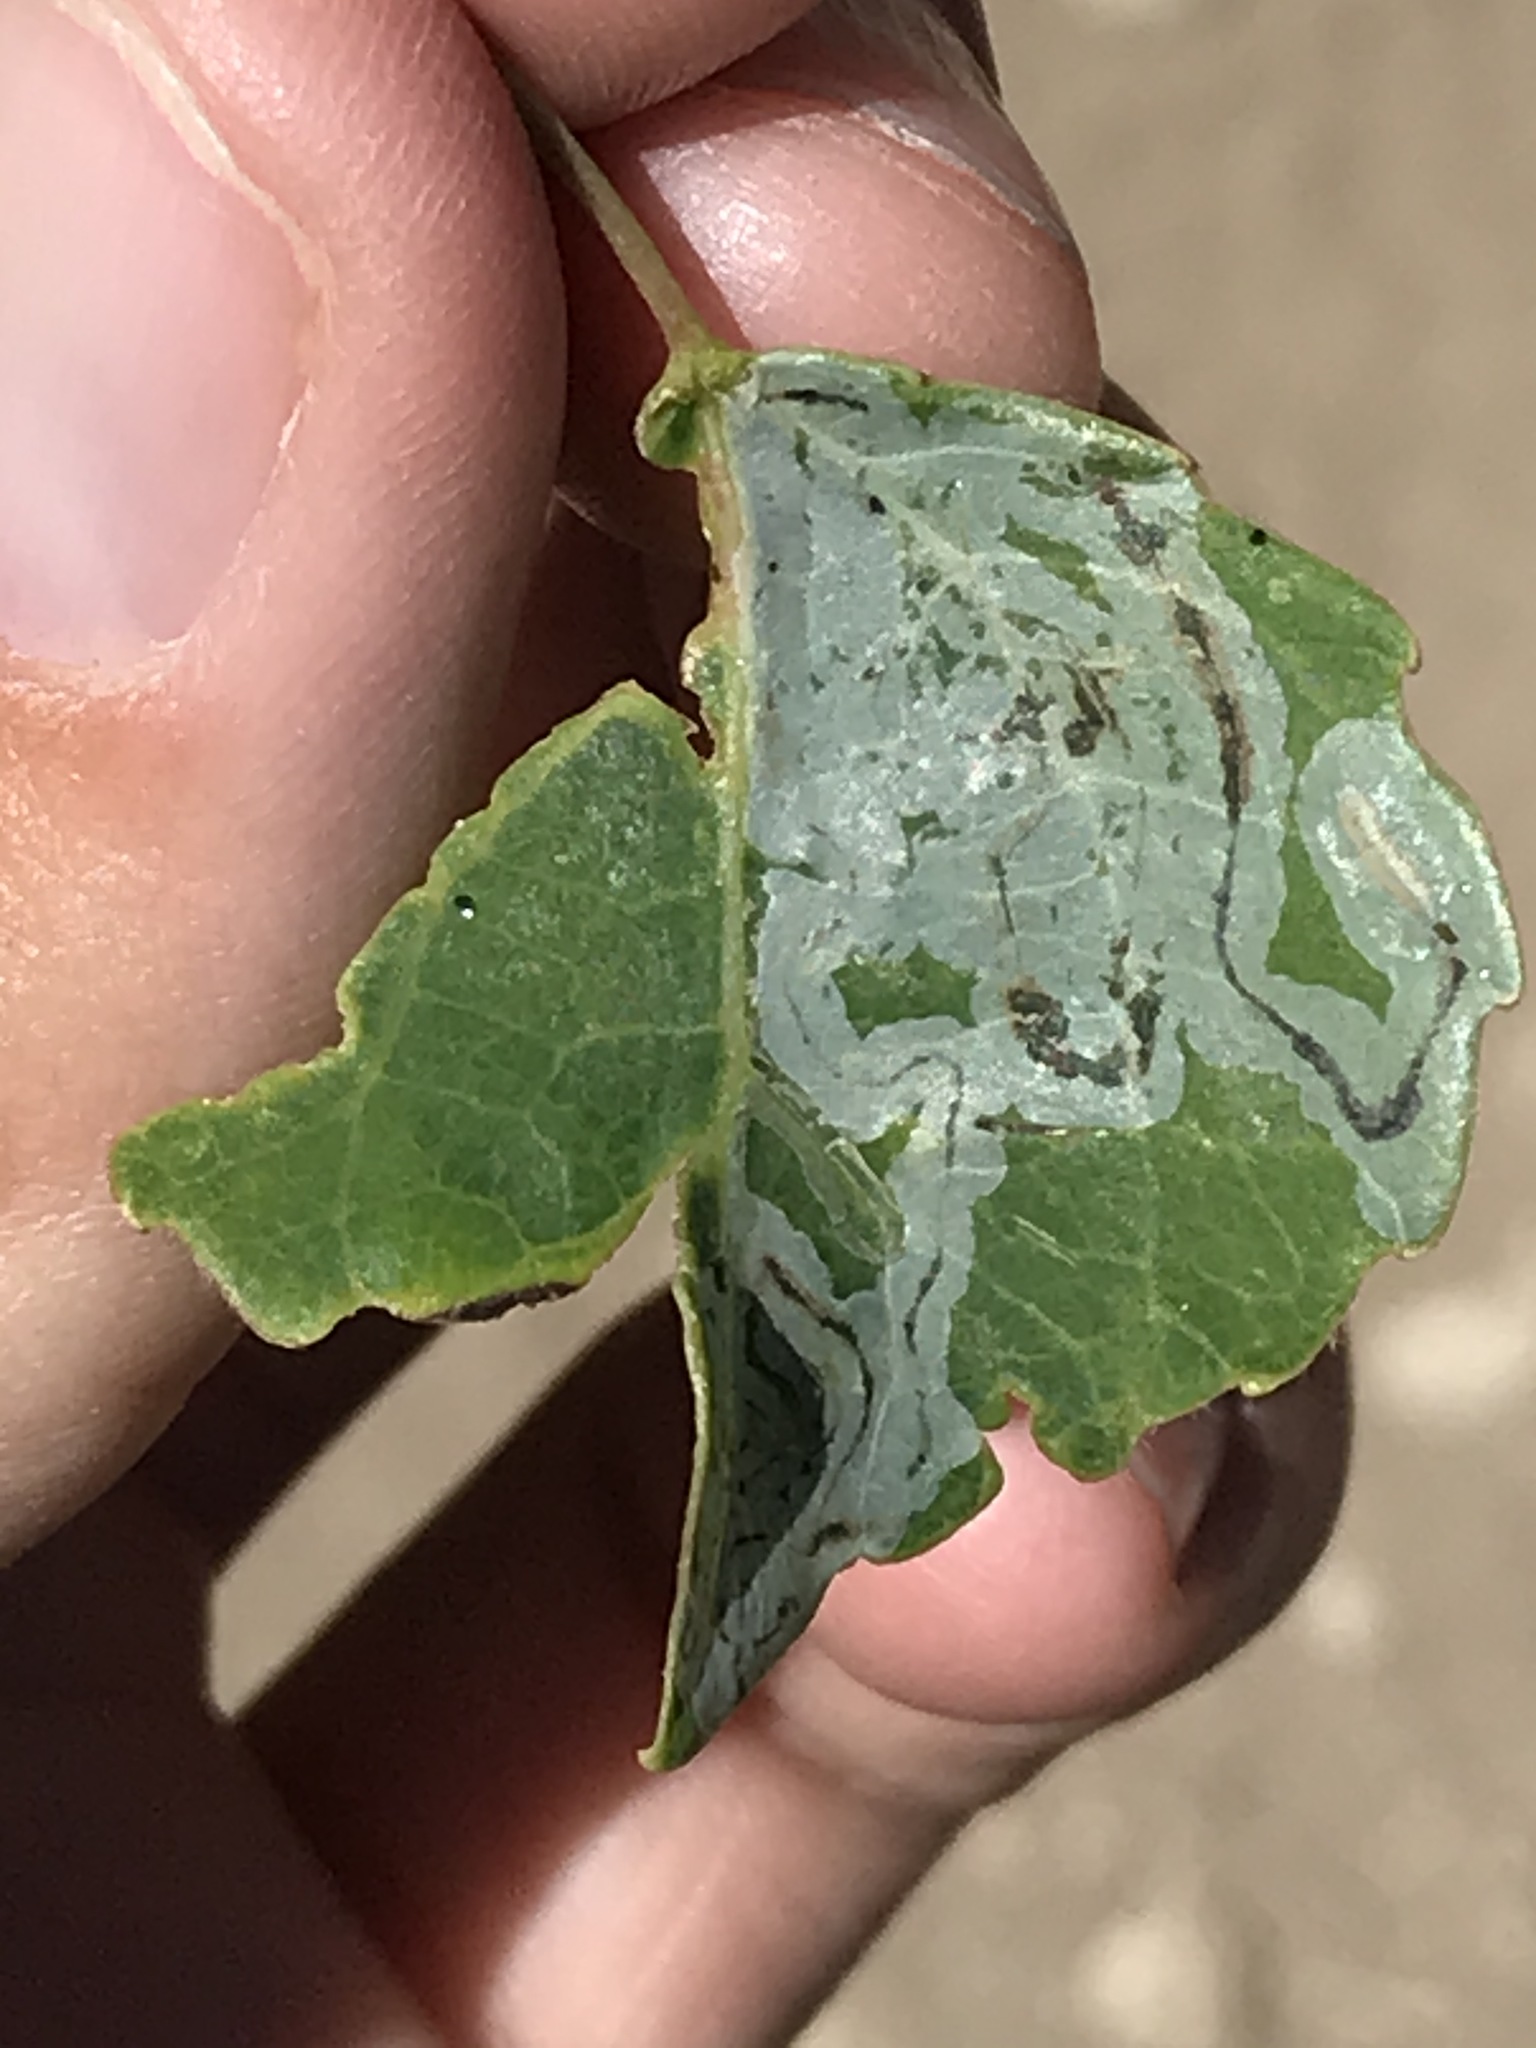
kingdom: Animalia
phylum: Arthropoda
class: Insecta
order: Lepidoptera
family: Gracillariidae
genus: Phyllocnistis
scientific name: Phyllocnistis populiella
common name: Aspen serpentine leafminer moth
